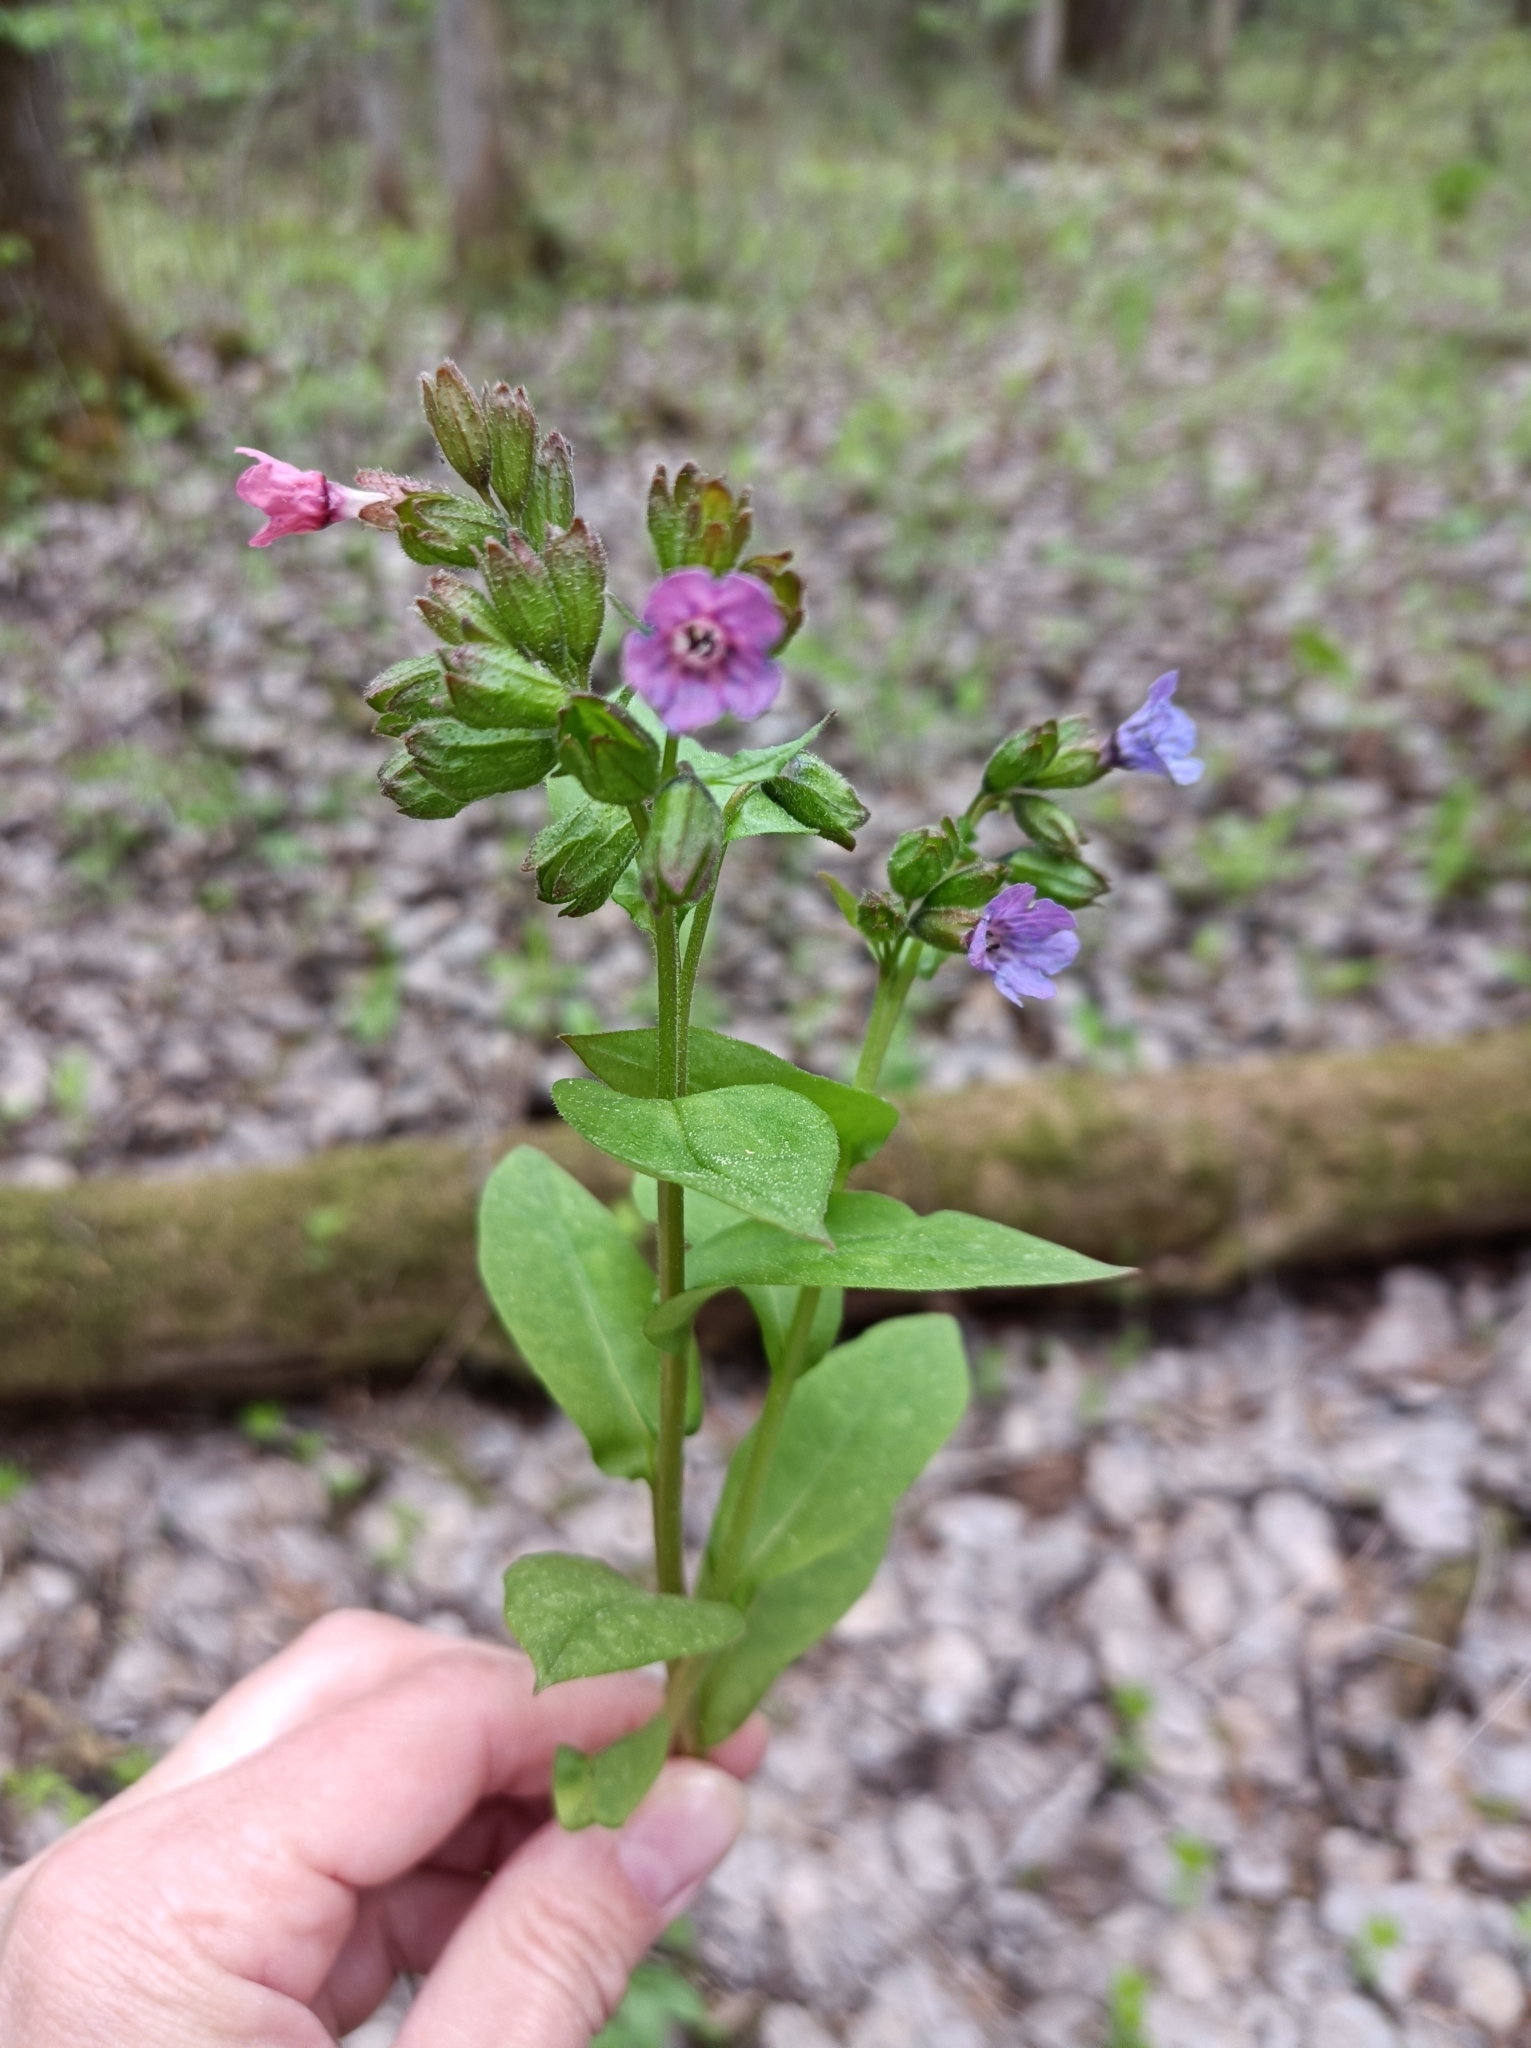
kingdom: Plantae
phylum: Tracheophyta
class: Magnoliopsida
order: Boraginales
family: Boraginaceae
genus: Pulmonaria
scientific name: Pulmonaria obscura
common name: Suffolk lungwort
